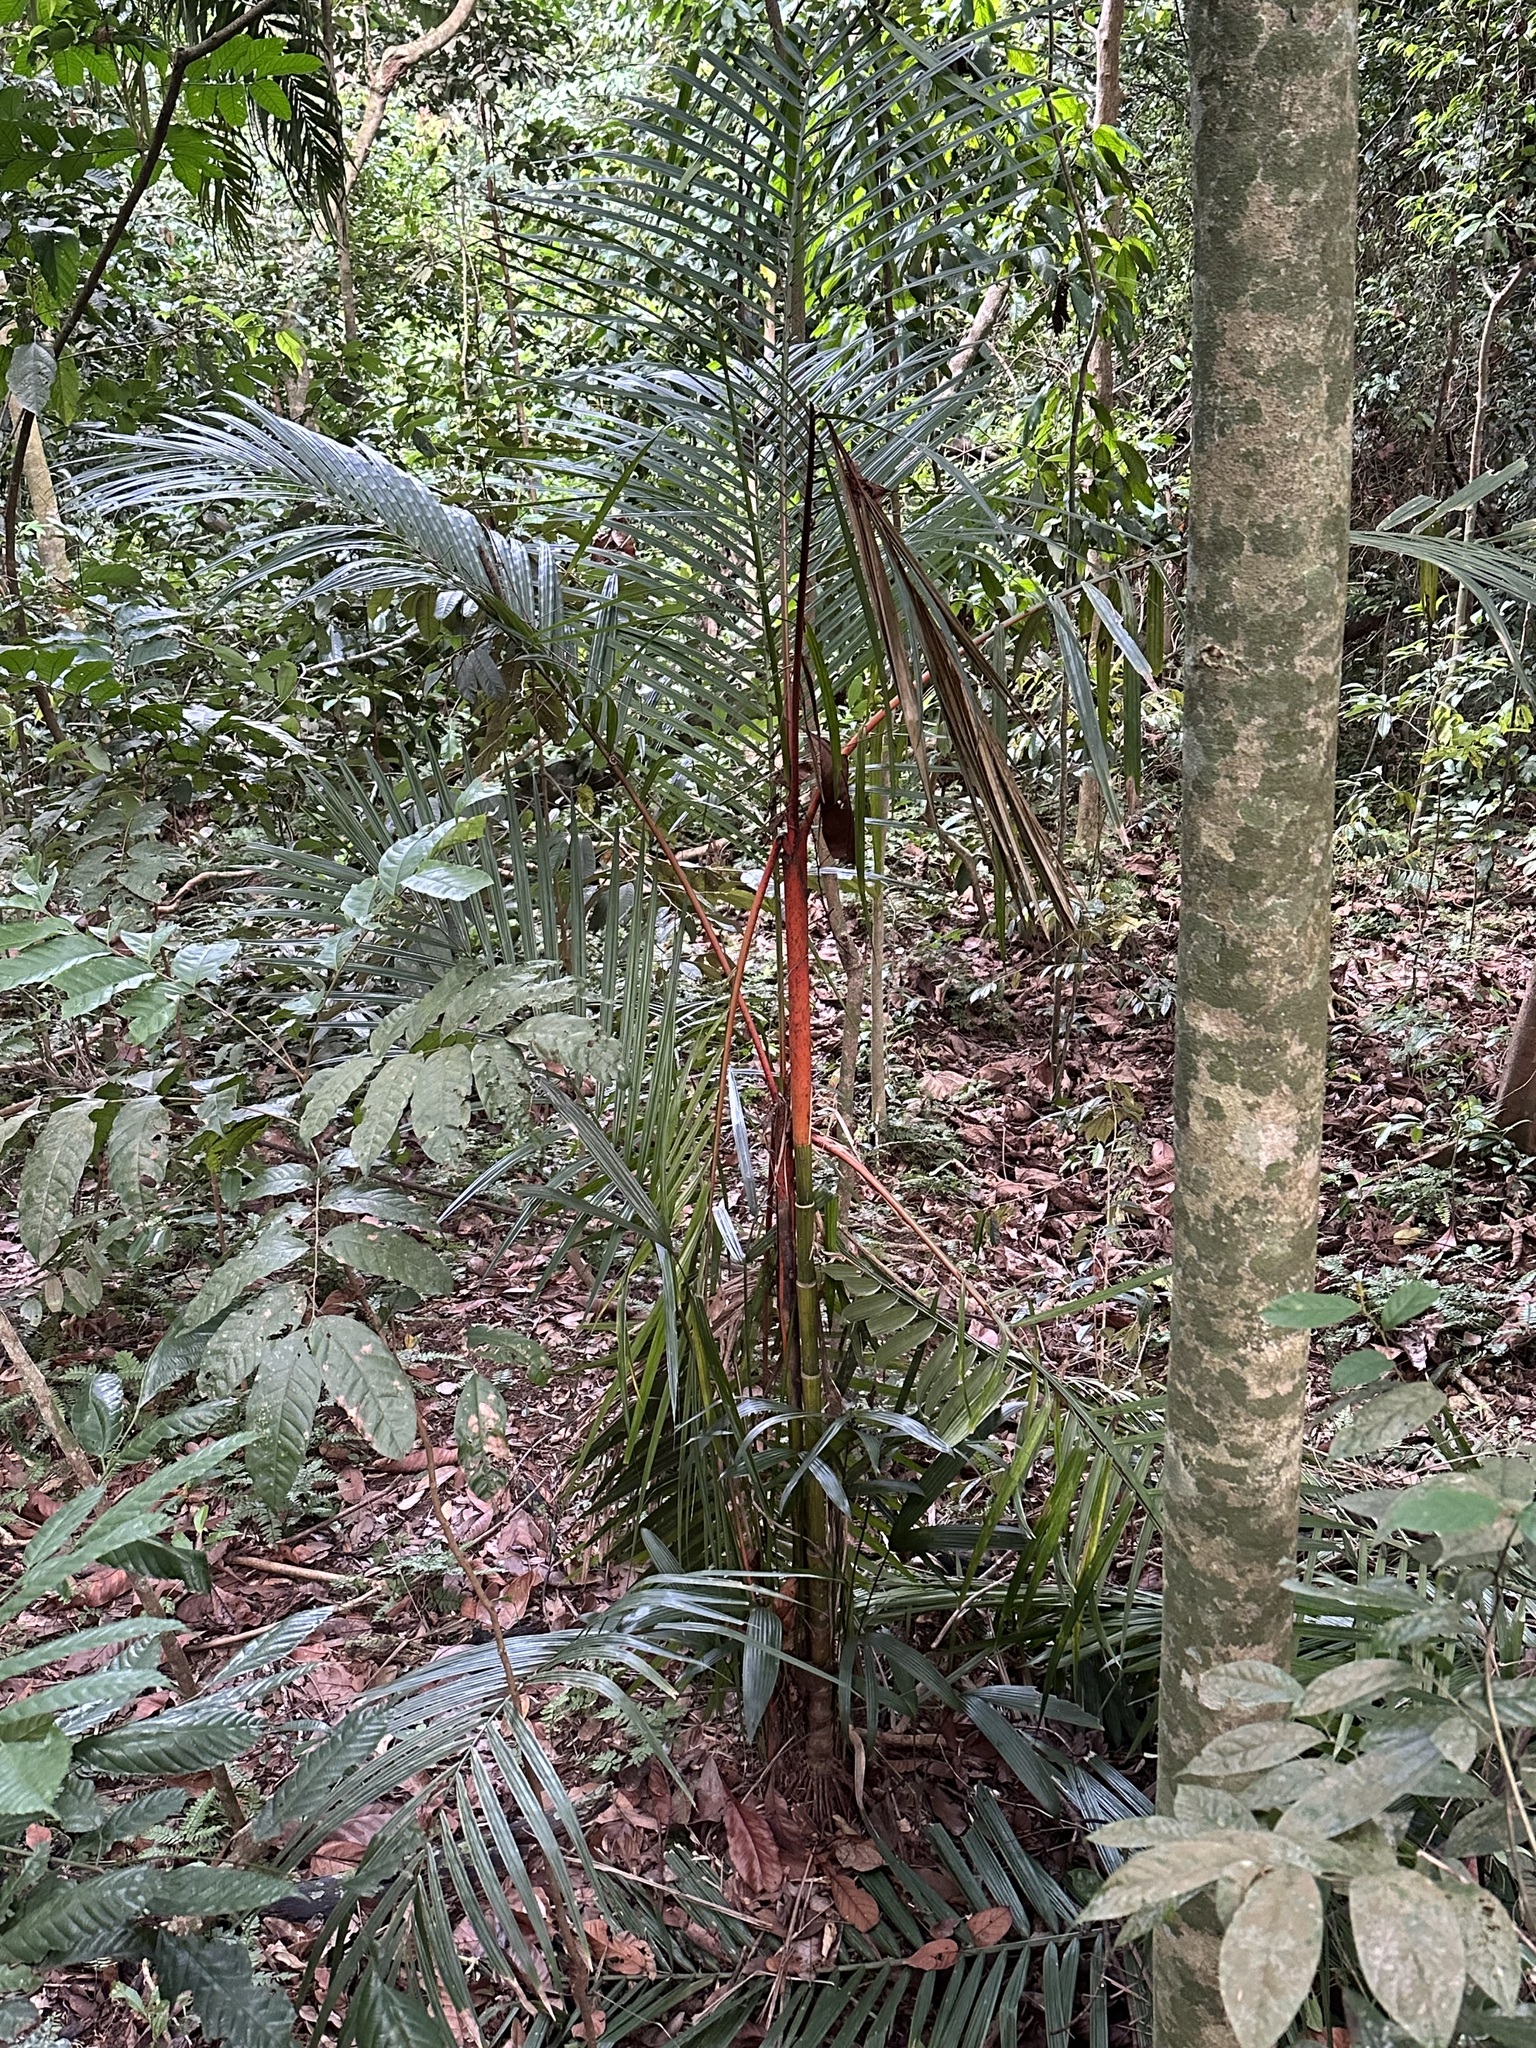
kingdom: Plantae
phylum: Tracheophyta
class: Liliopsida
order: Arecales
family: Arecaceae
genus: Cyrtostachys
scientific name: Cyrtostachys renda
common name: Lipstick palm
